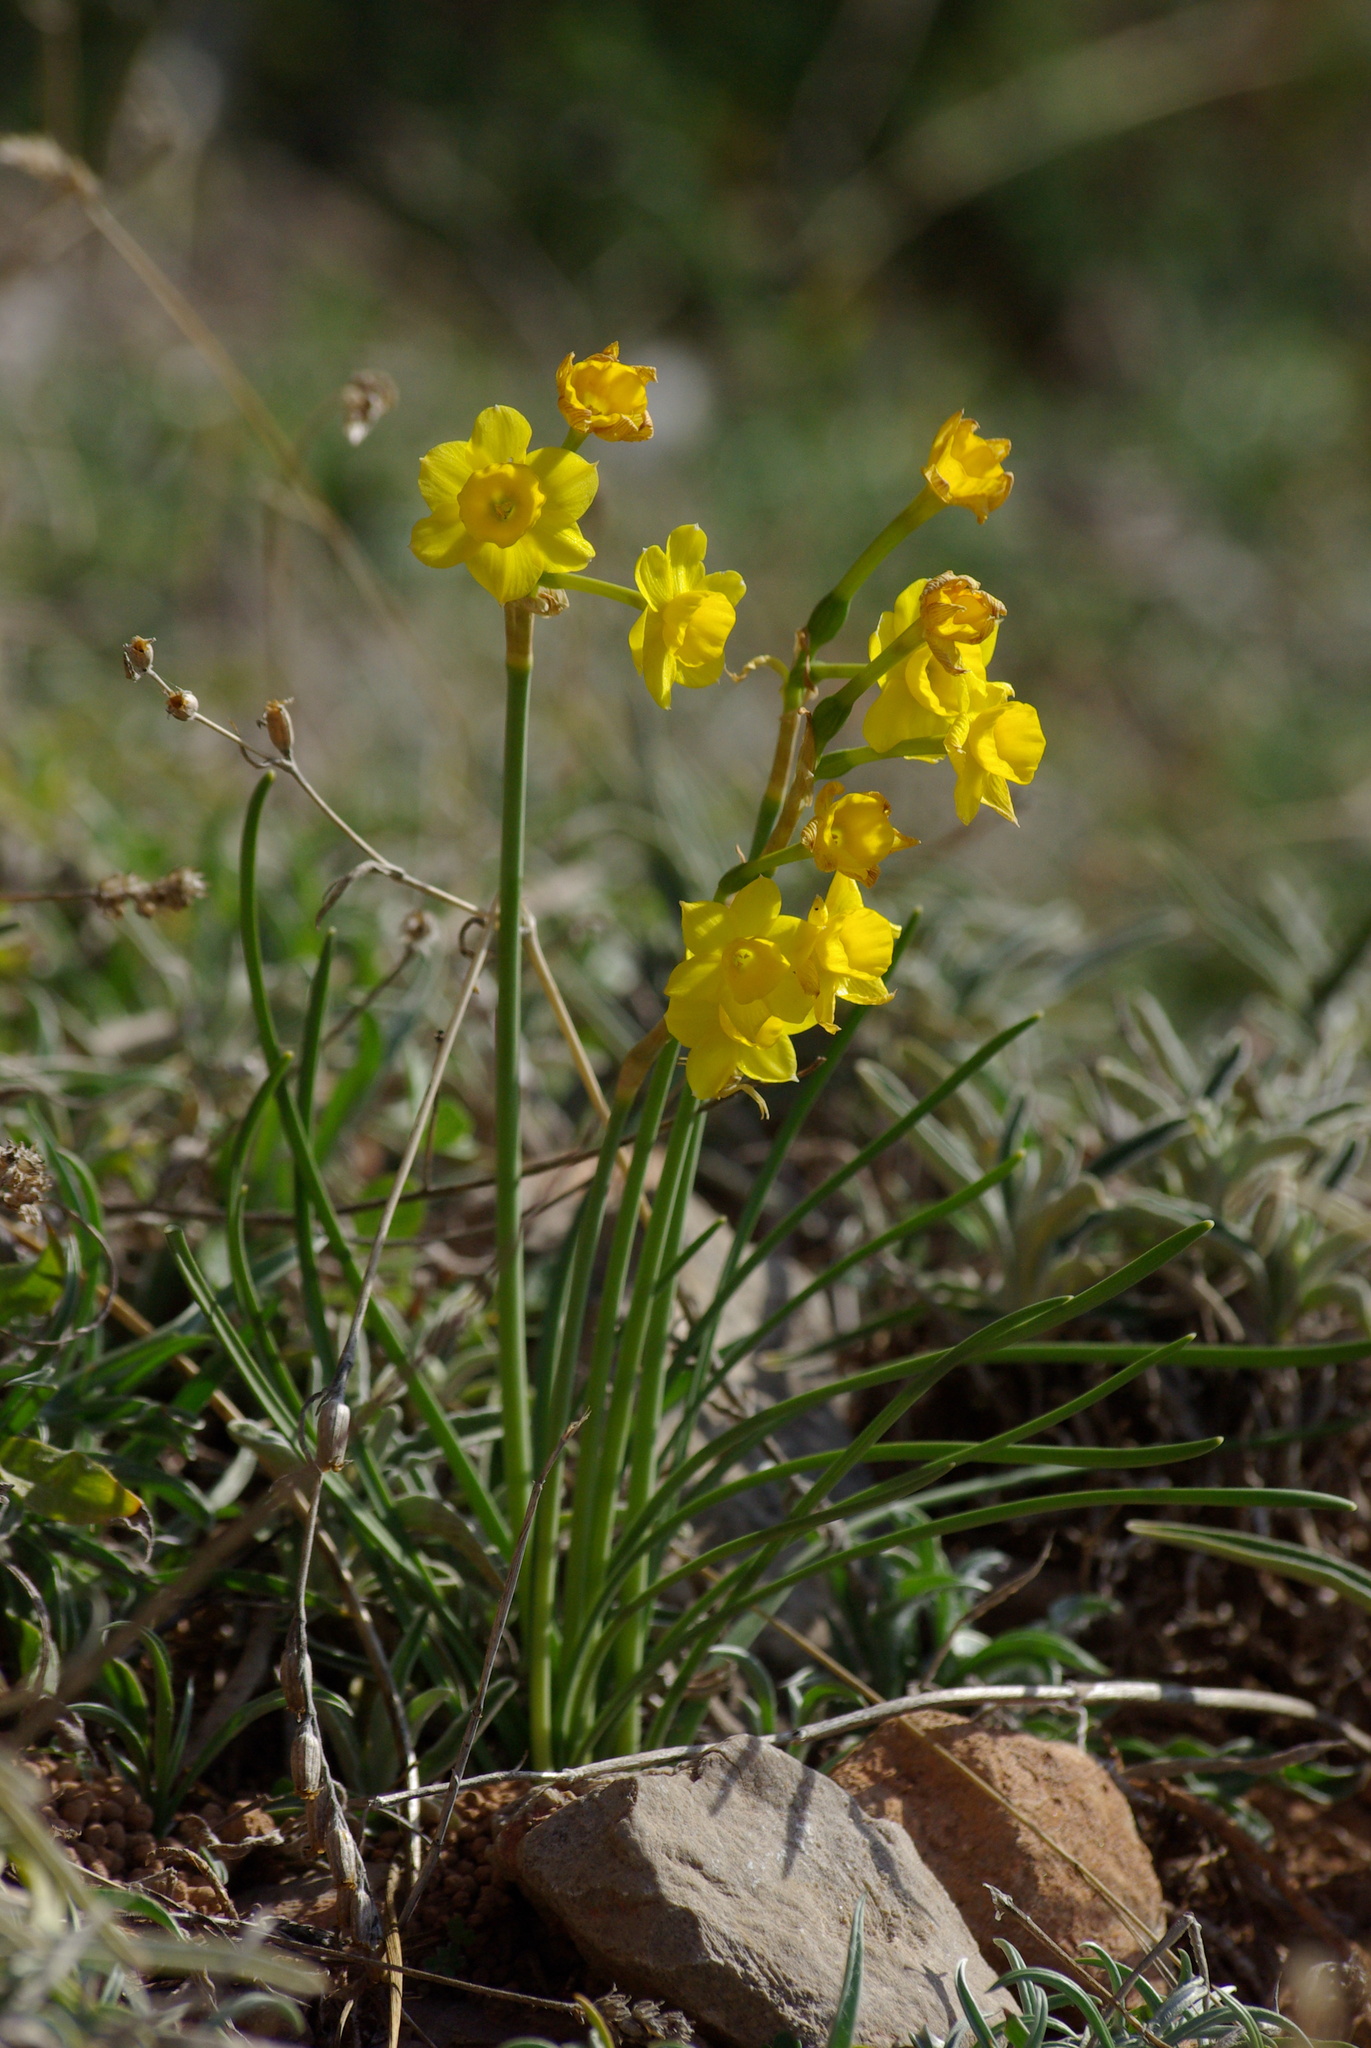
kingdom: Plantae
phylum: Tracheophyta
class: Liliopsida
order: Asparagales
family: Amaryllidaceae
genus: Narcissus
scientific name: Narcissus assoanus
